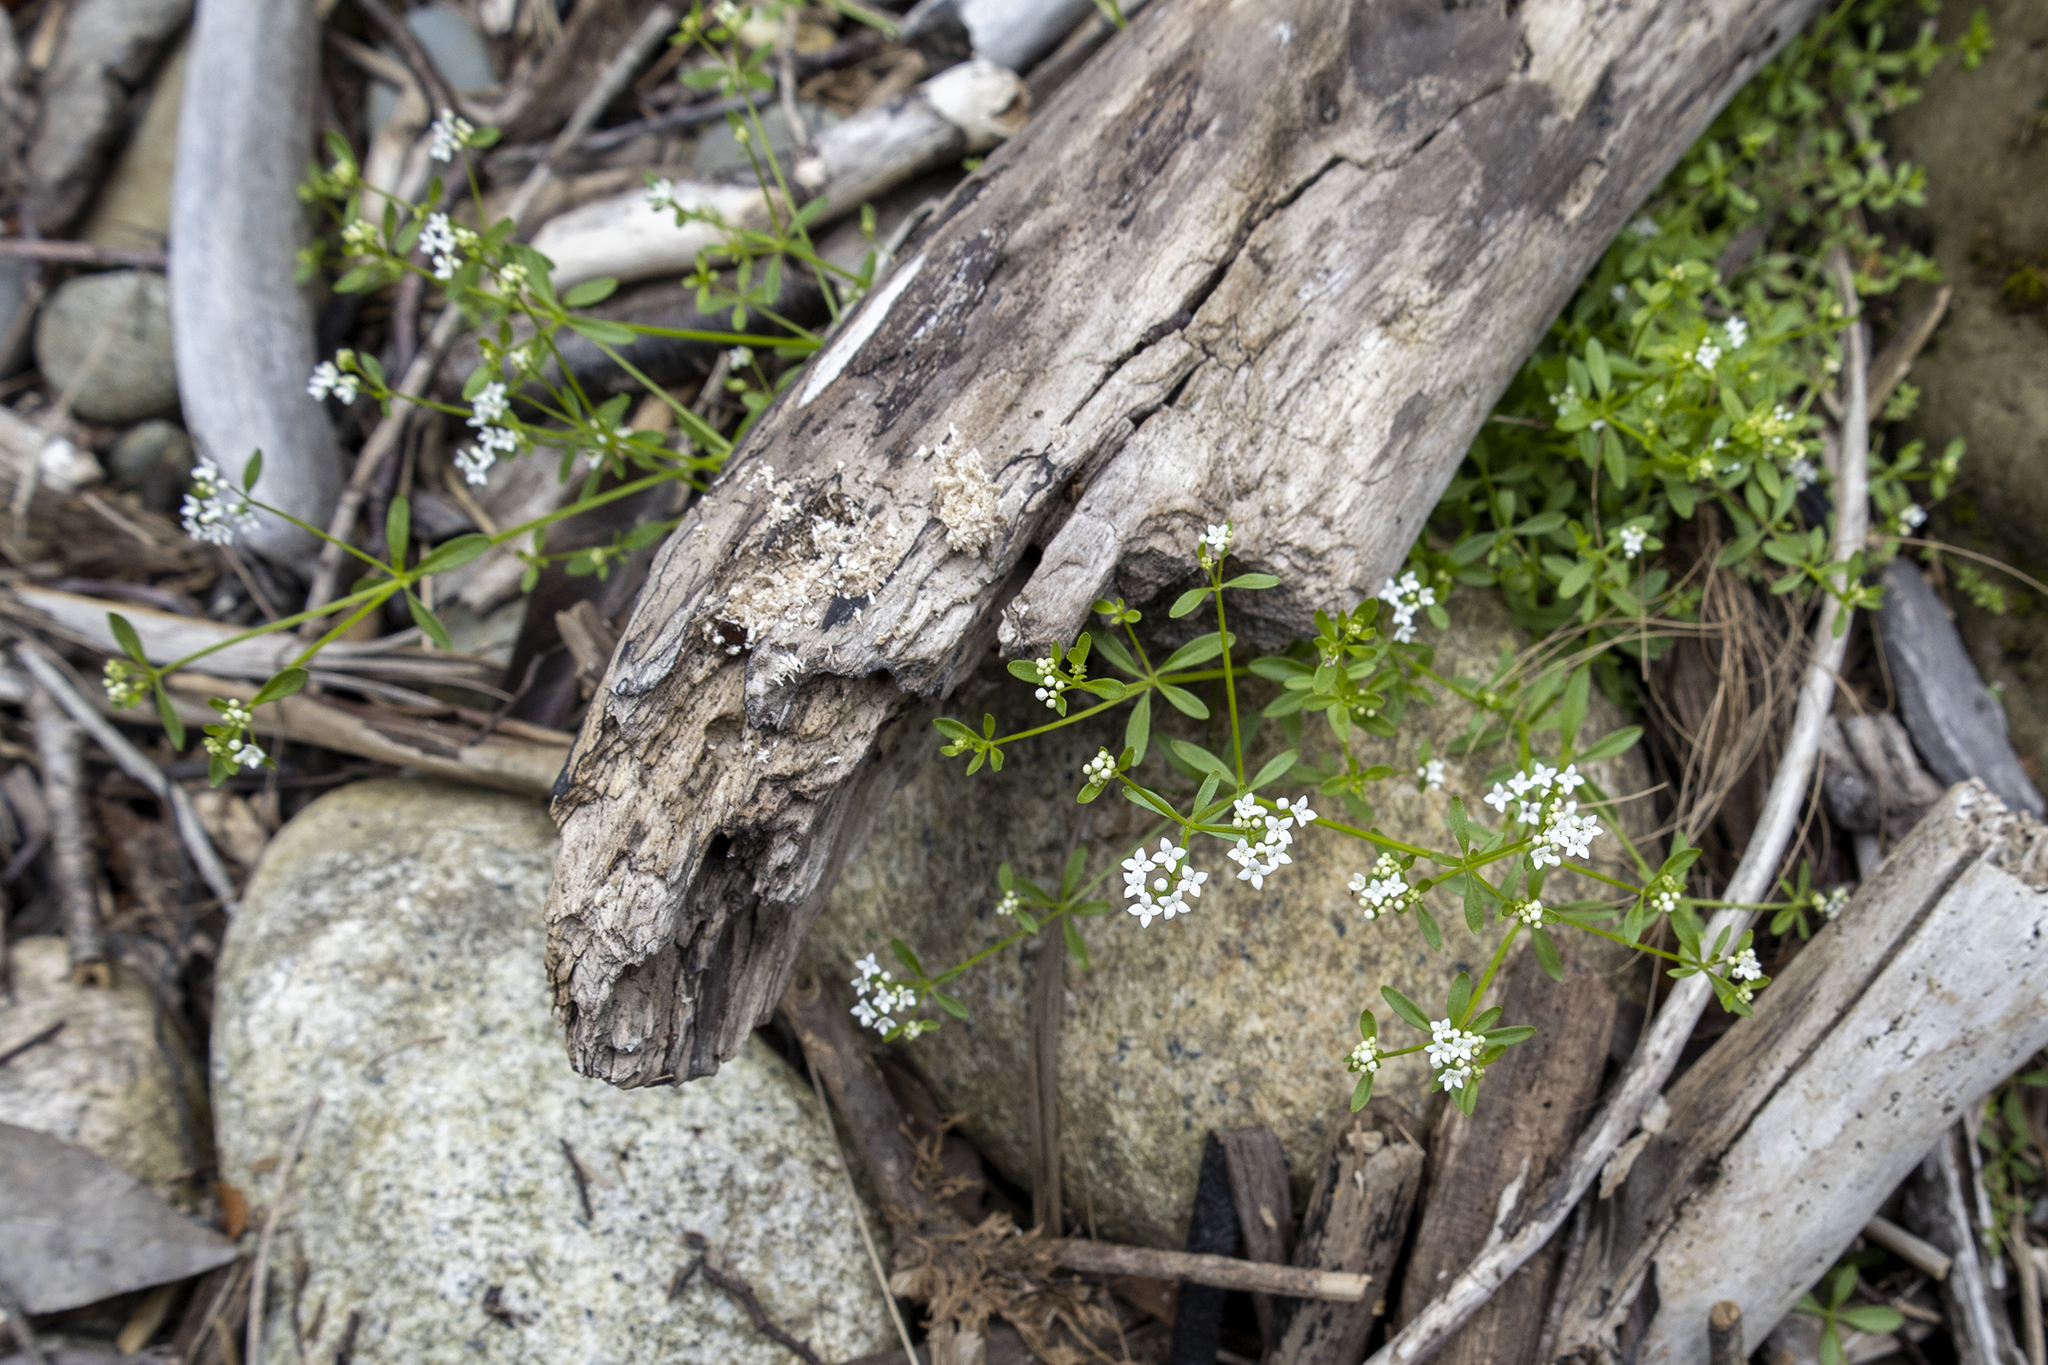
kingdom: Plantae
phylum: Tracheophyta
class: Magnoliopsida
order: Gentianales
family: Rubiaceae
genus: Galium
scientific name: Galium palustre
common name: Common marsh-bedstraw
